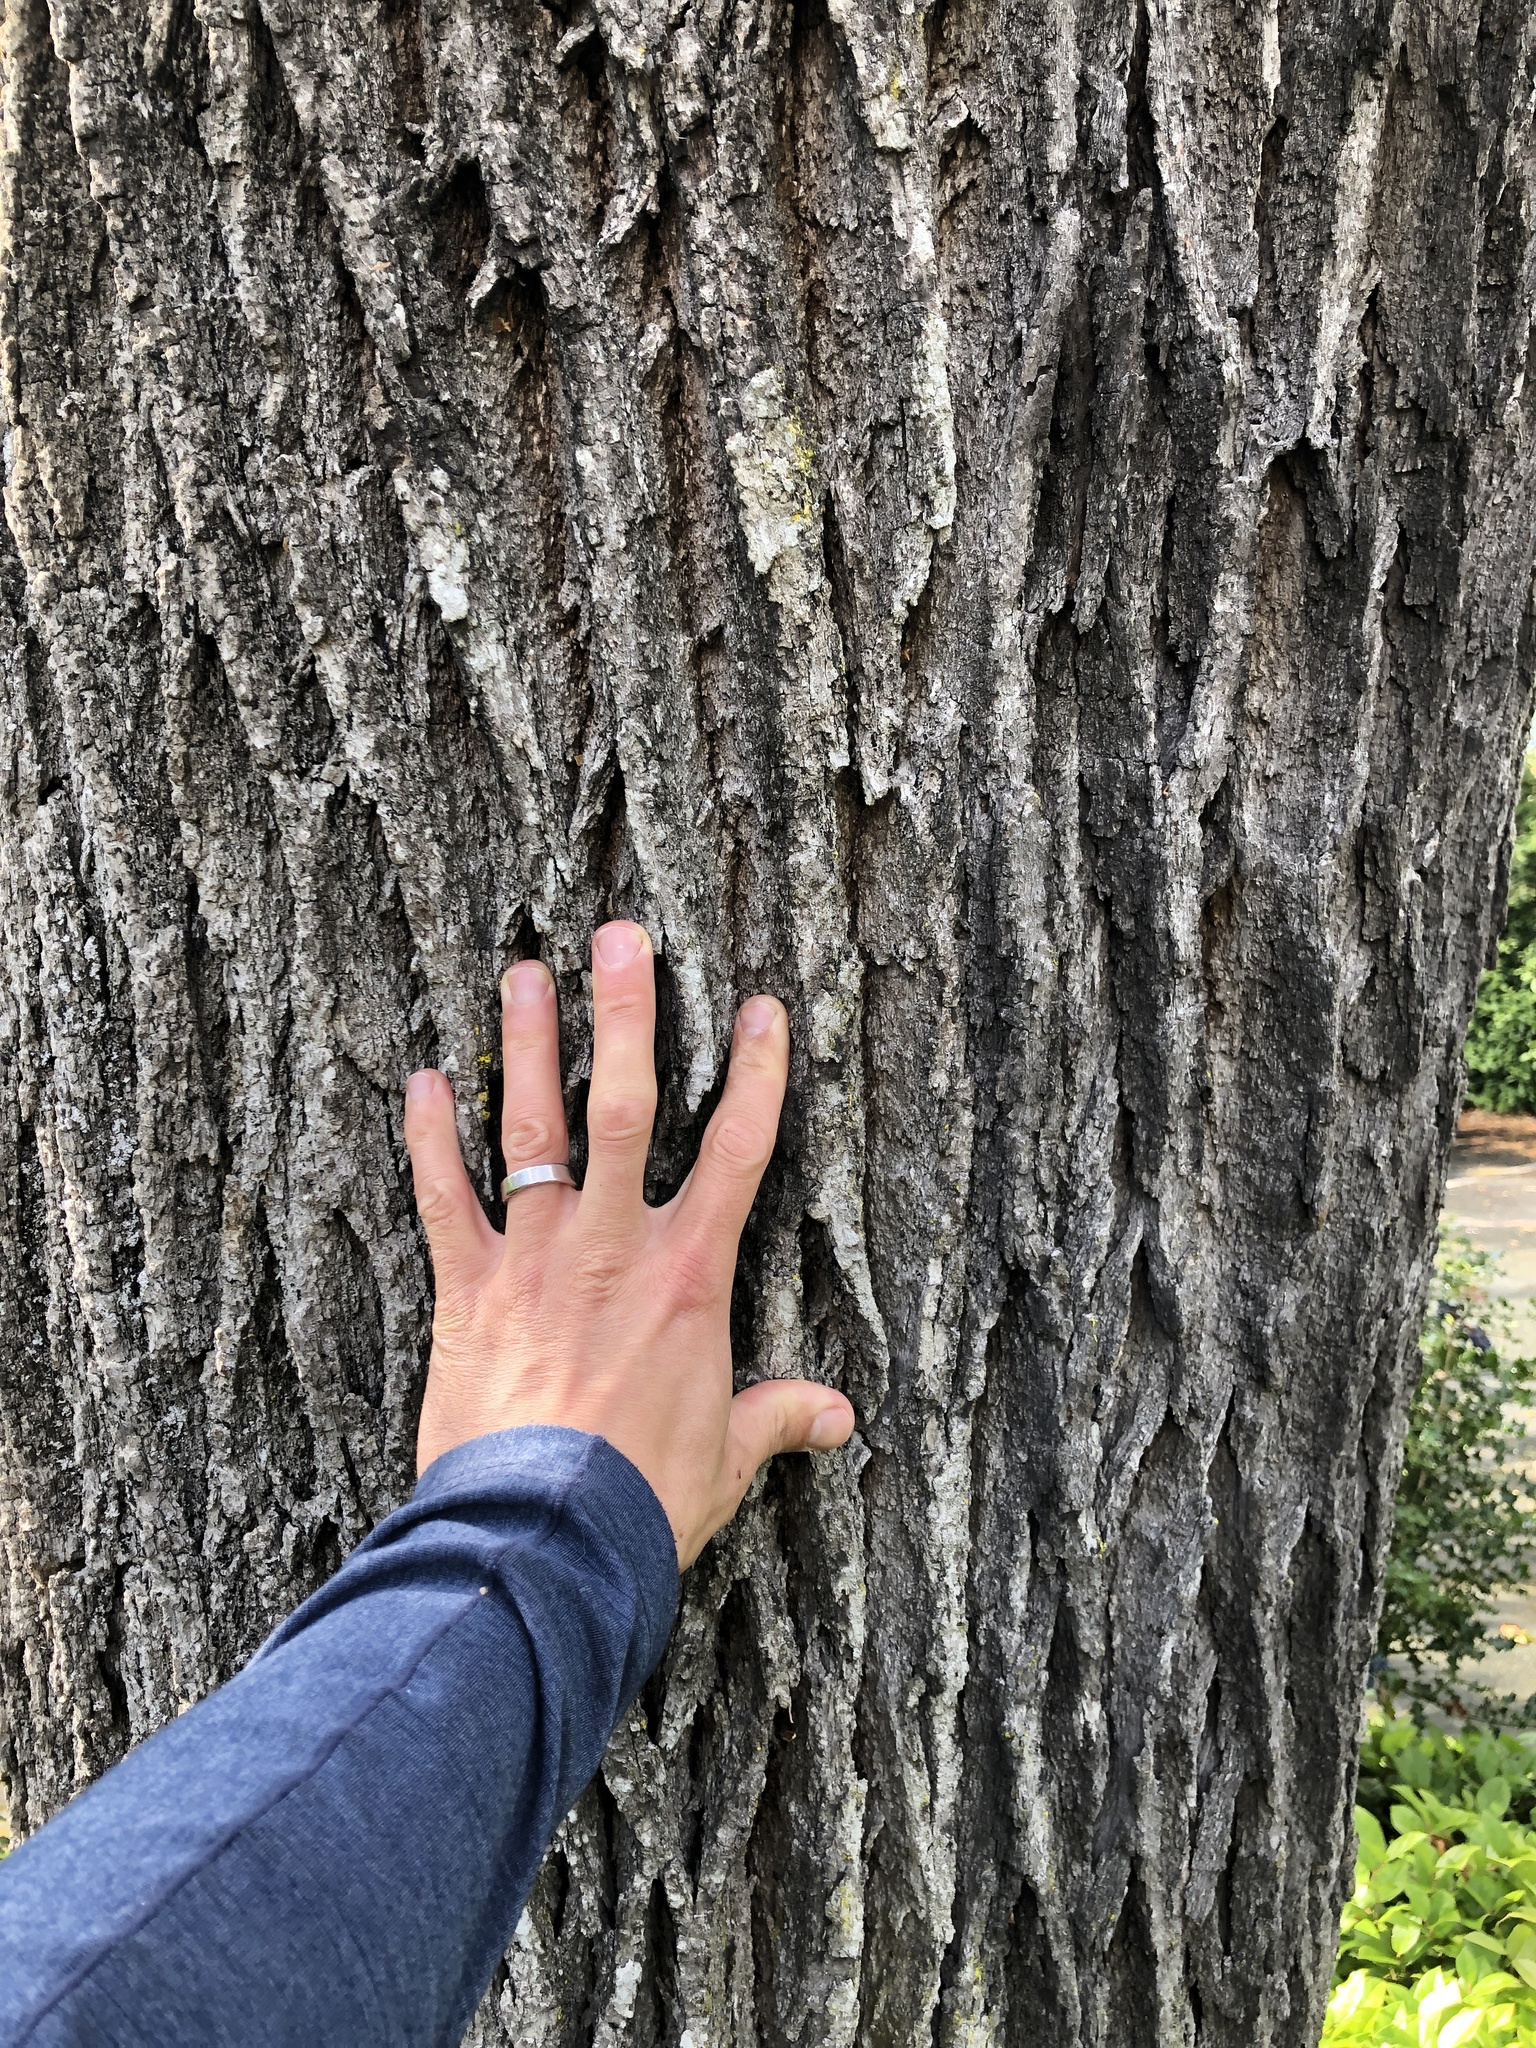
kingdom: Plantae
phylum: Tracheophyta
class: Magnoliopsida
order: Fagales
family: Fagaceae
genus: Quercus
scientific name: Quercus garryana
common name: Garry oak
